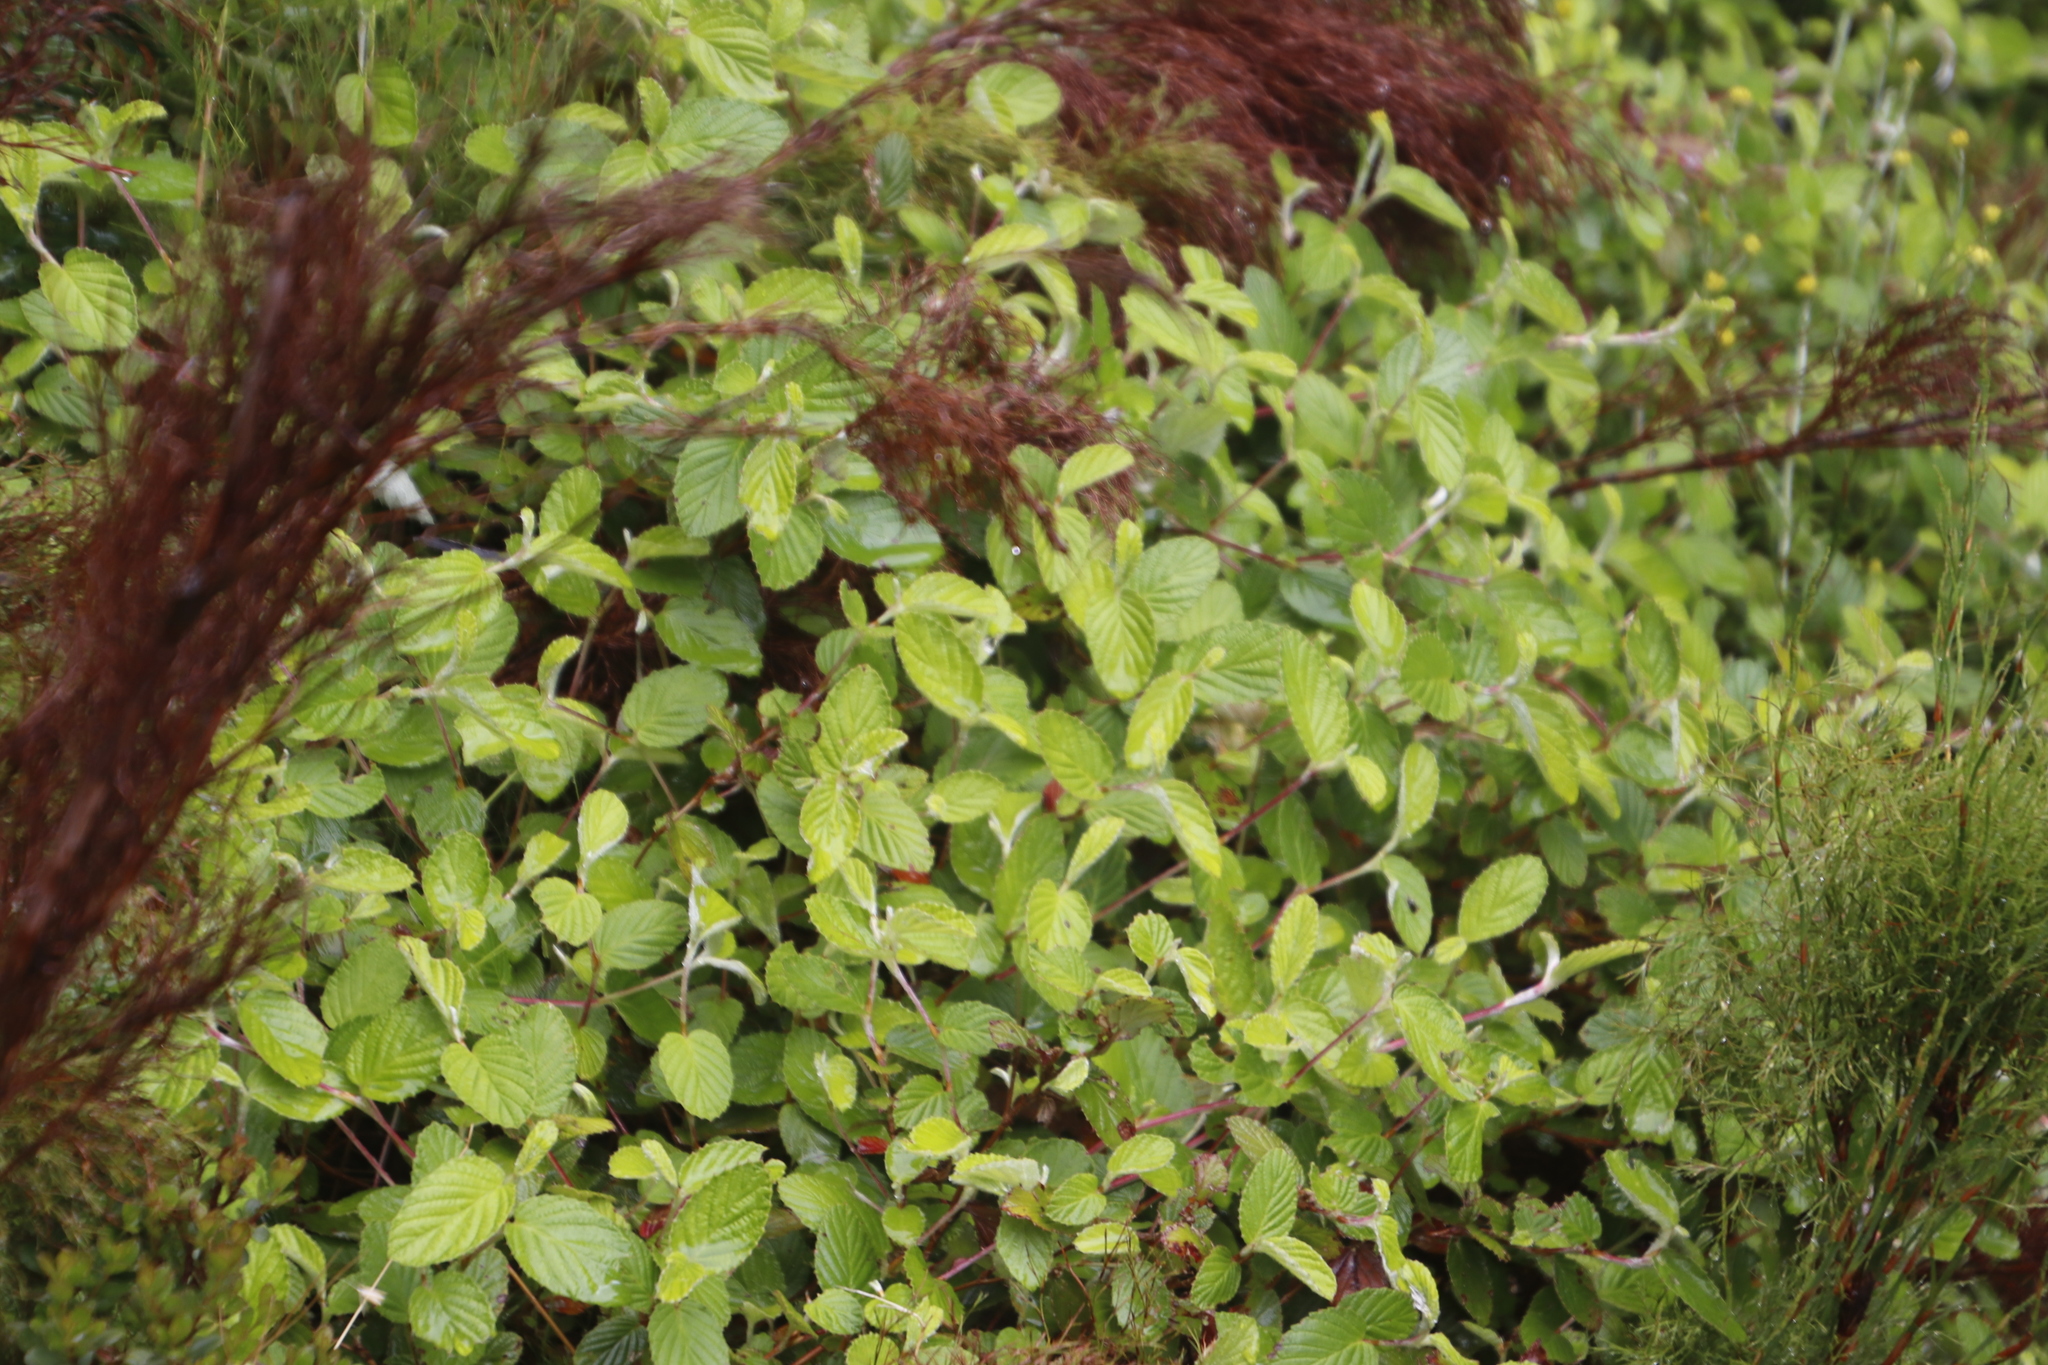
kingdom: Plantae
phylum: Tracheophyta
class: Magnoliopsida
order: Rosales
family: Rosaceae
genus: Cliffortia
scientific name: Cliffortia odorata
